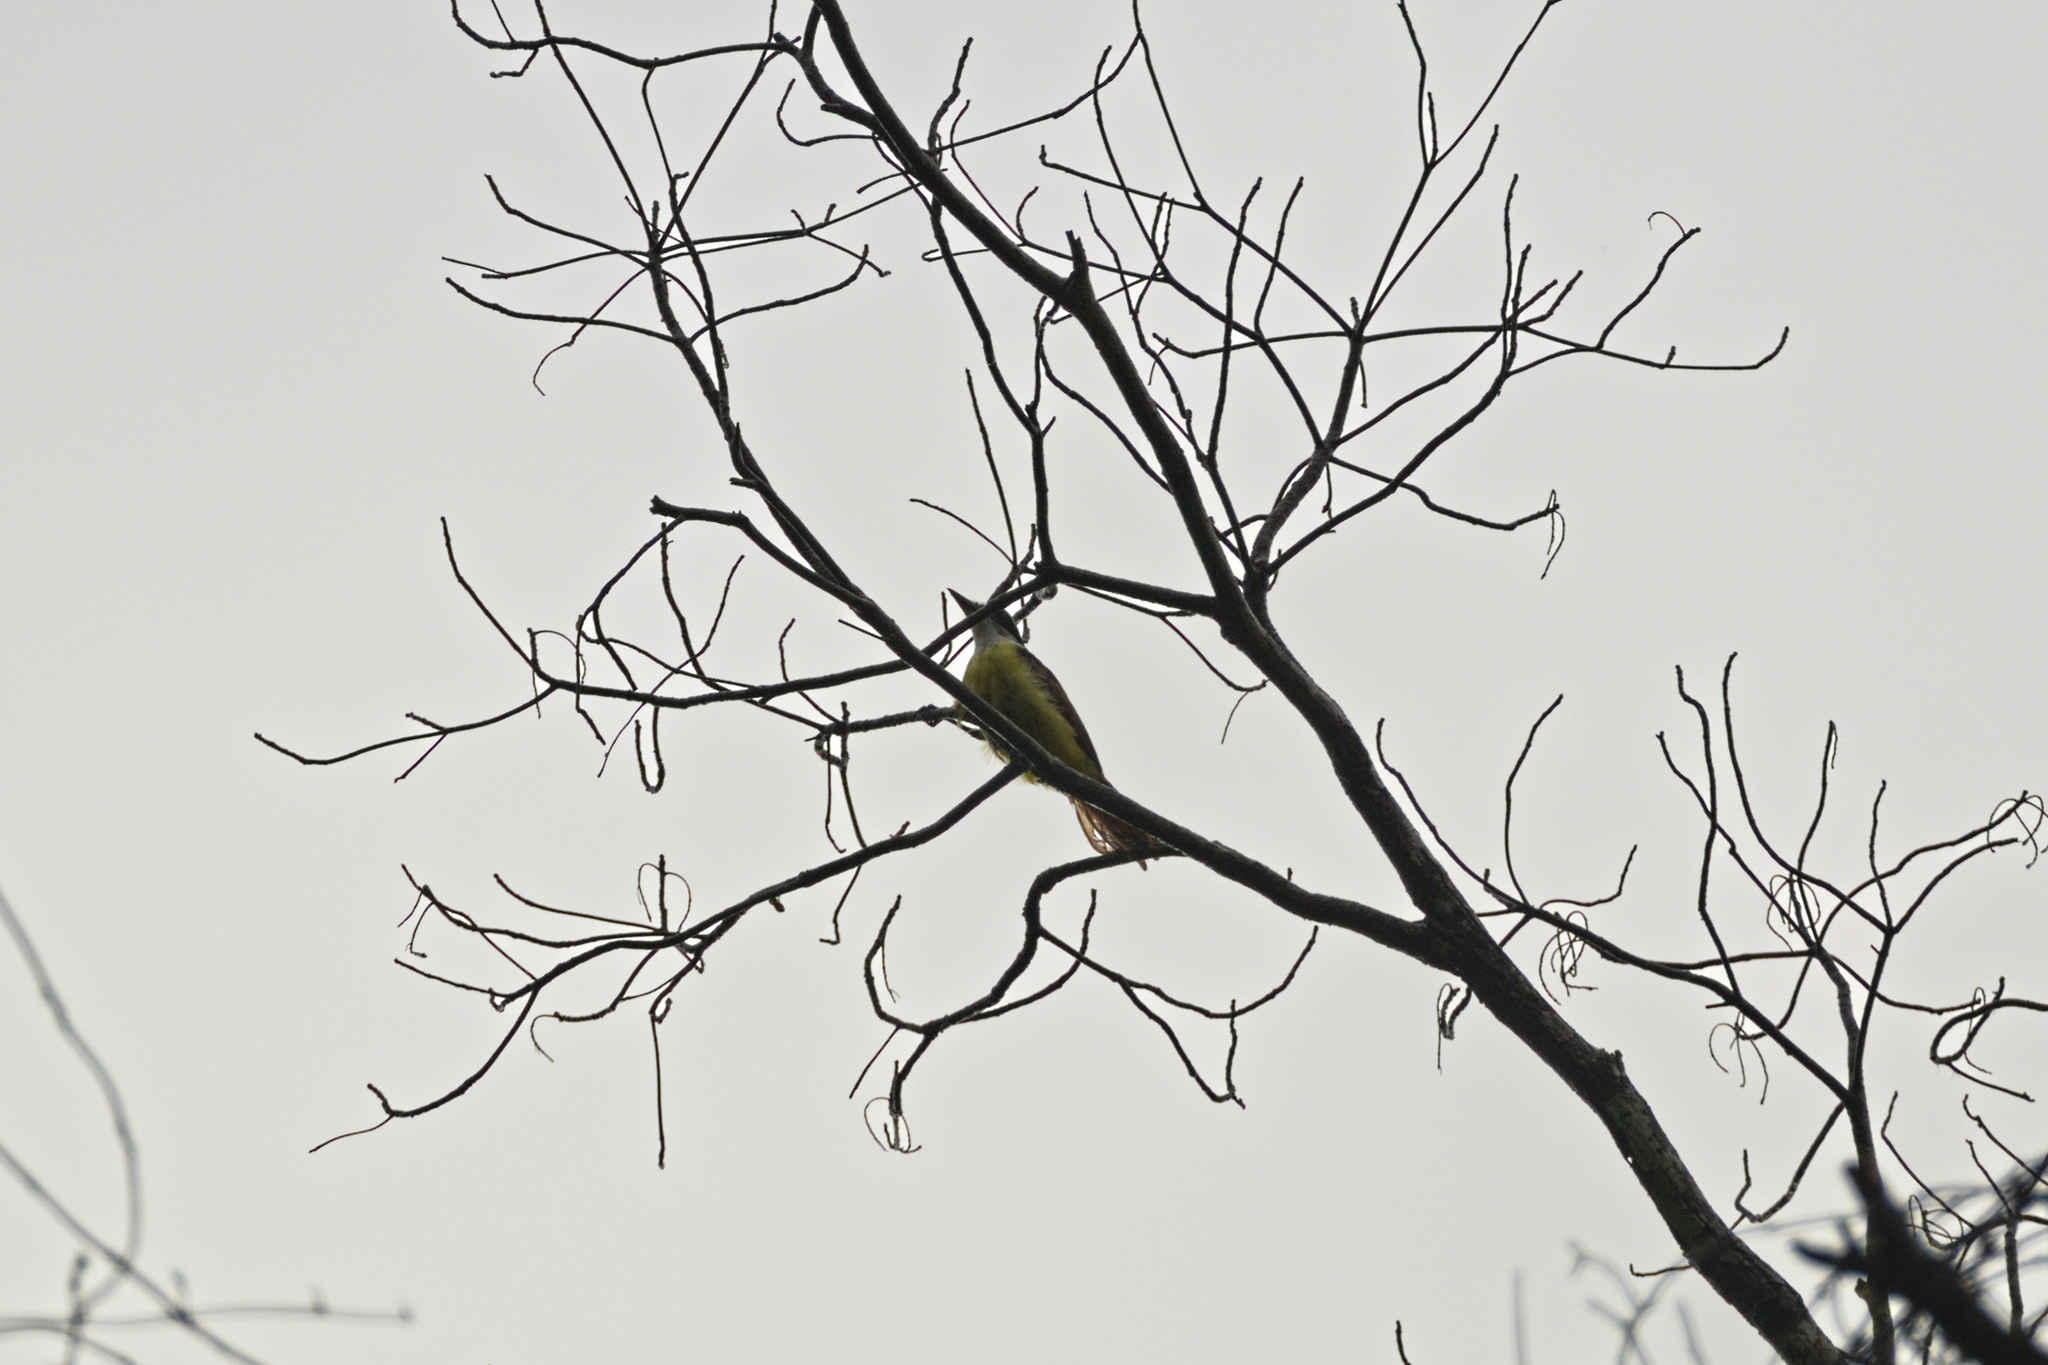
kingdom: Animalia
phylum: Chordata
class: Aves
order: Passeriformes
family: Tyrannidae
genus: Pitangus
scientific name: Pitangus sulphuratus
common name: Great kiskadee
